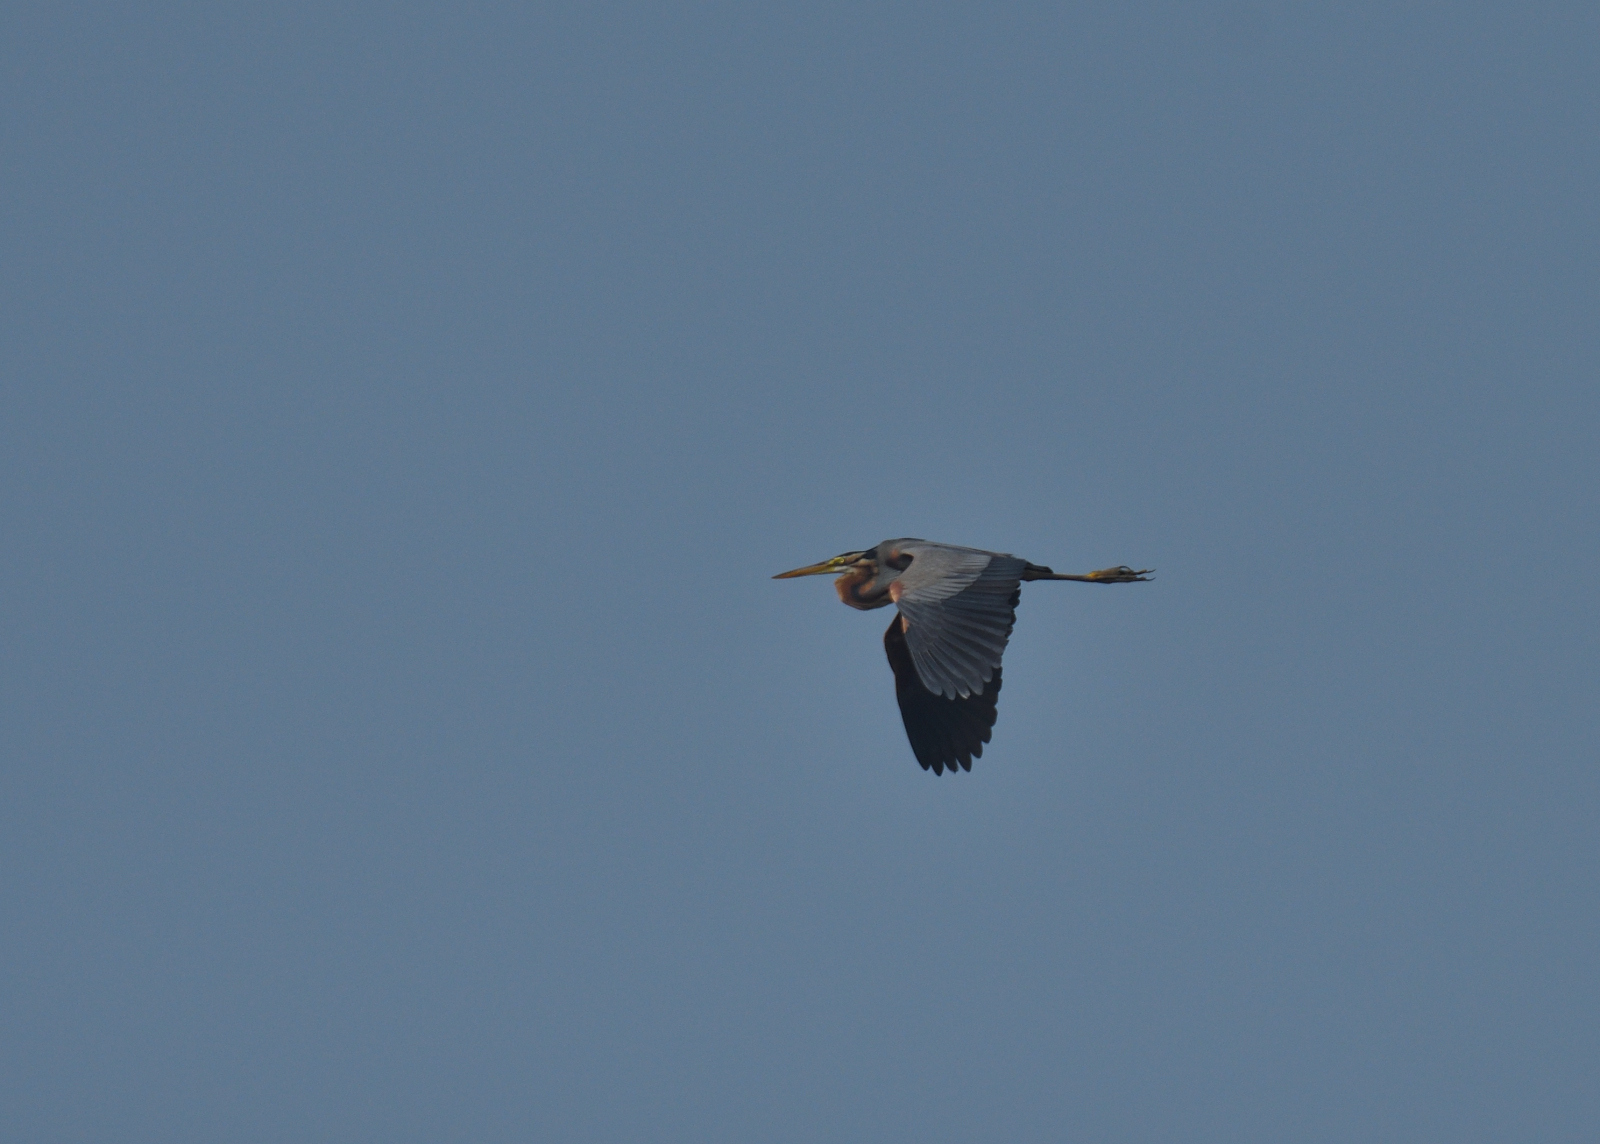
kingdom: Animalia
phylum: Chordata
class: Aves
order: Pelecaniformes
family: Ardeidae
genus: Ardea
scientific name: Ardea purpurea
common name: Purple heron
